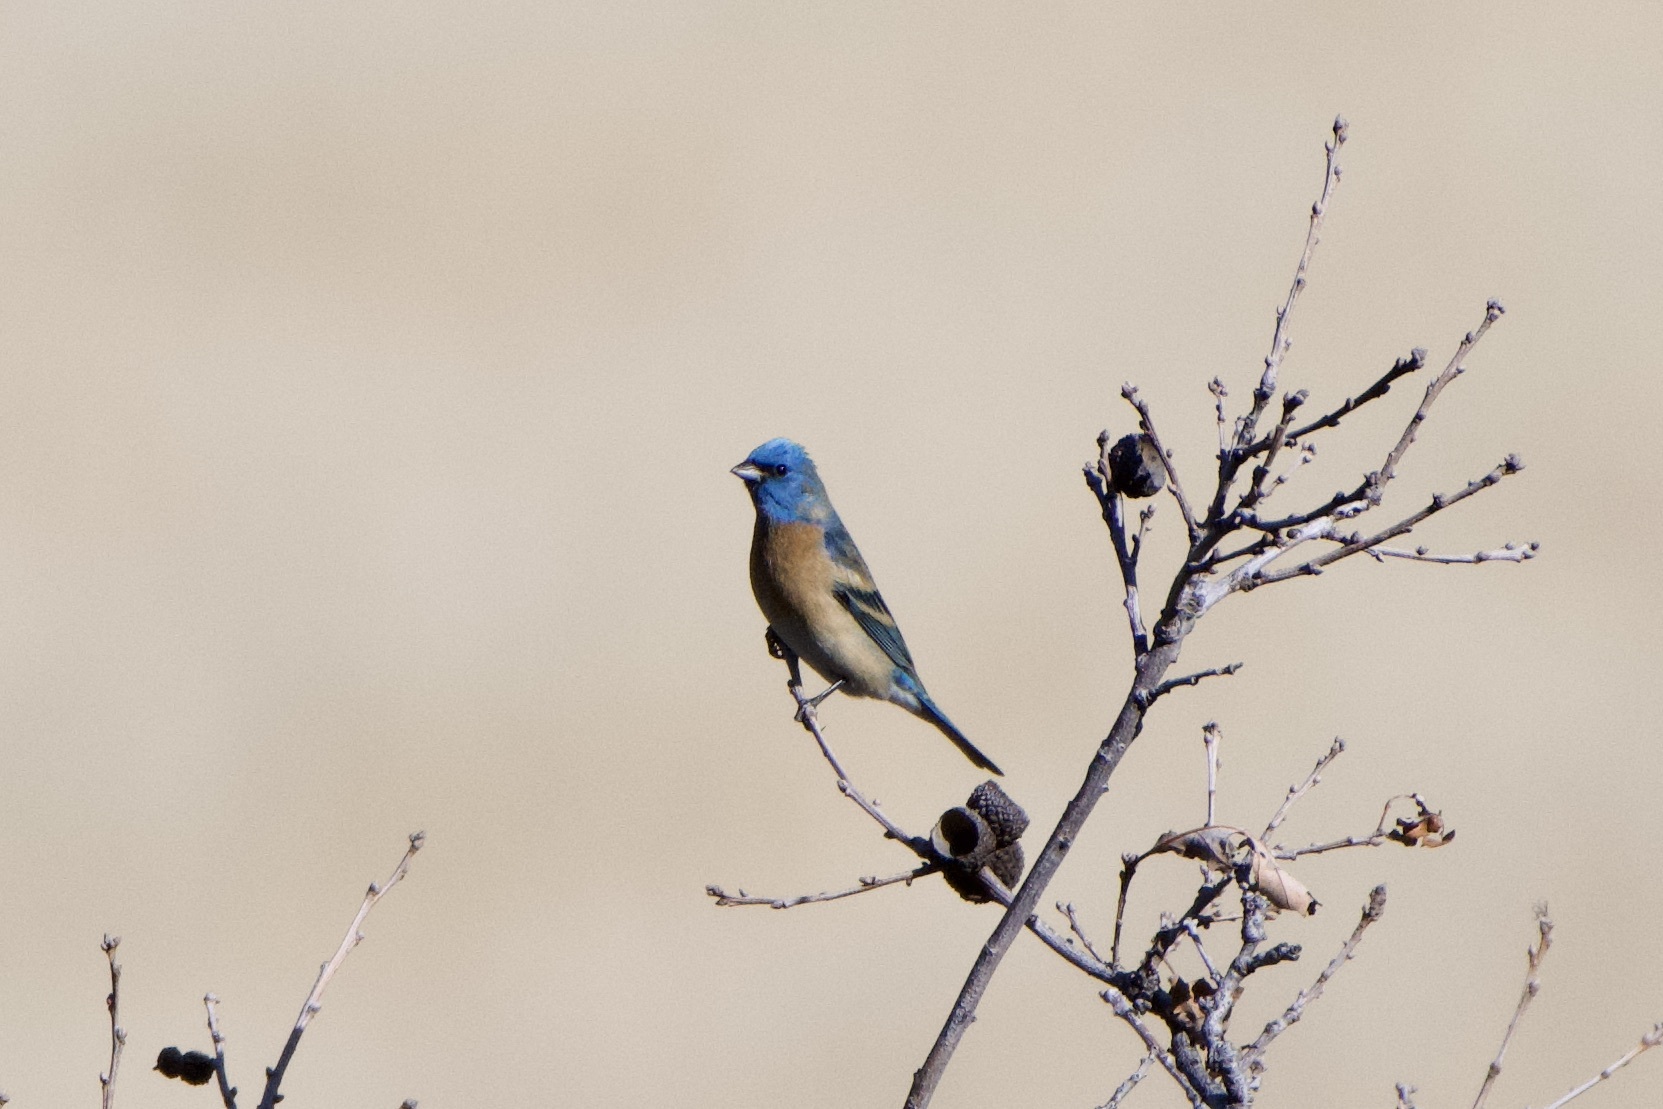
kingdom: Animalia
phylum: Chordata
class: Aves
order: Passeriformes
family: Cardinalidae
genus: Passerina
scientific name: Passerina amoena
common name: Lazuli bunting
